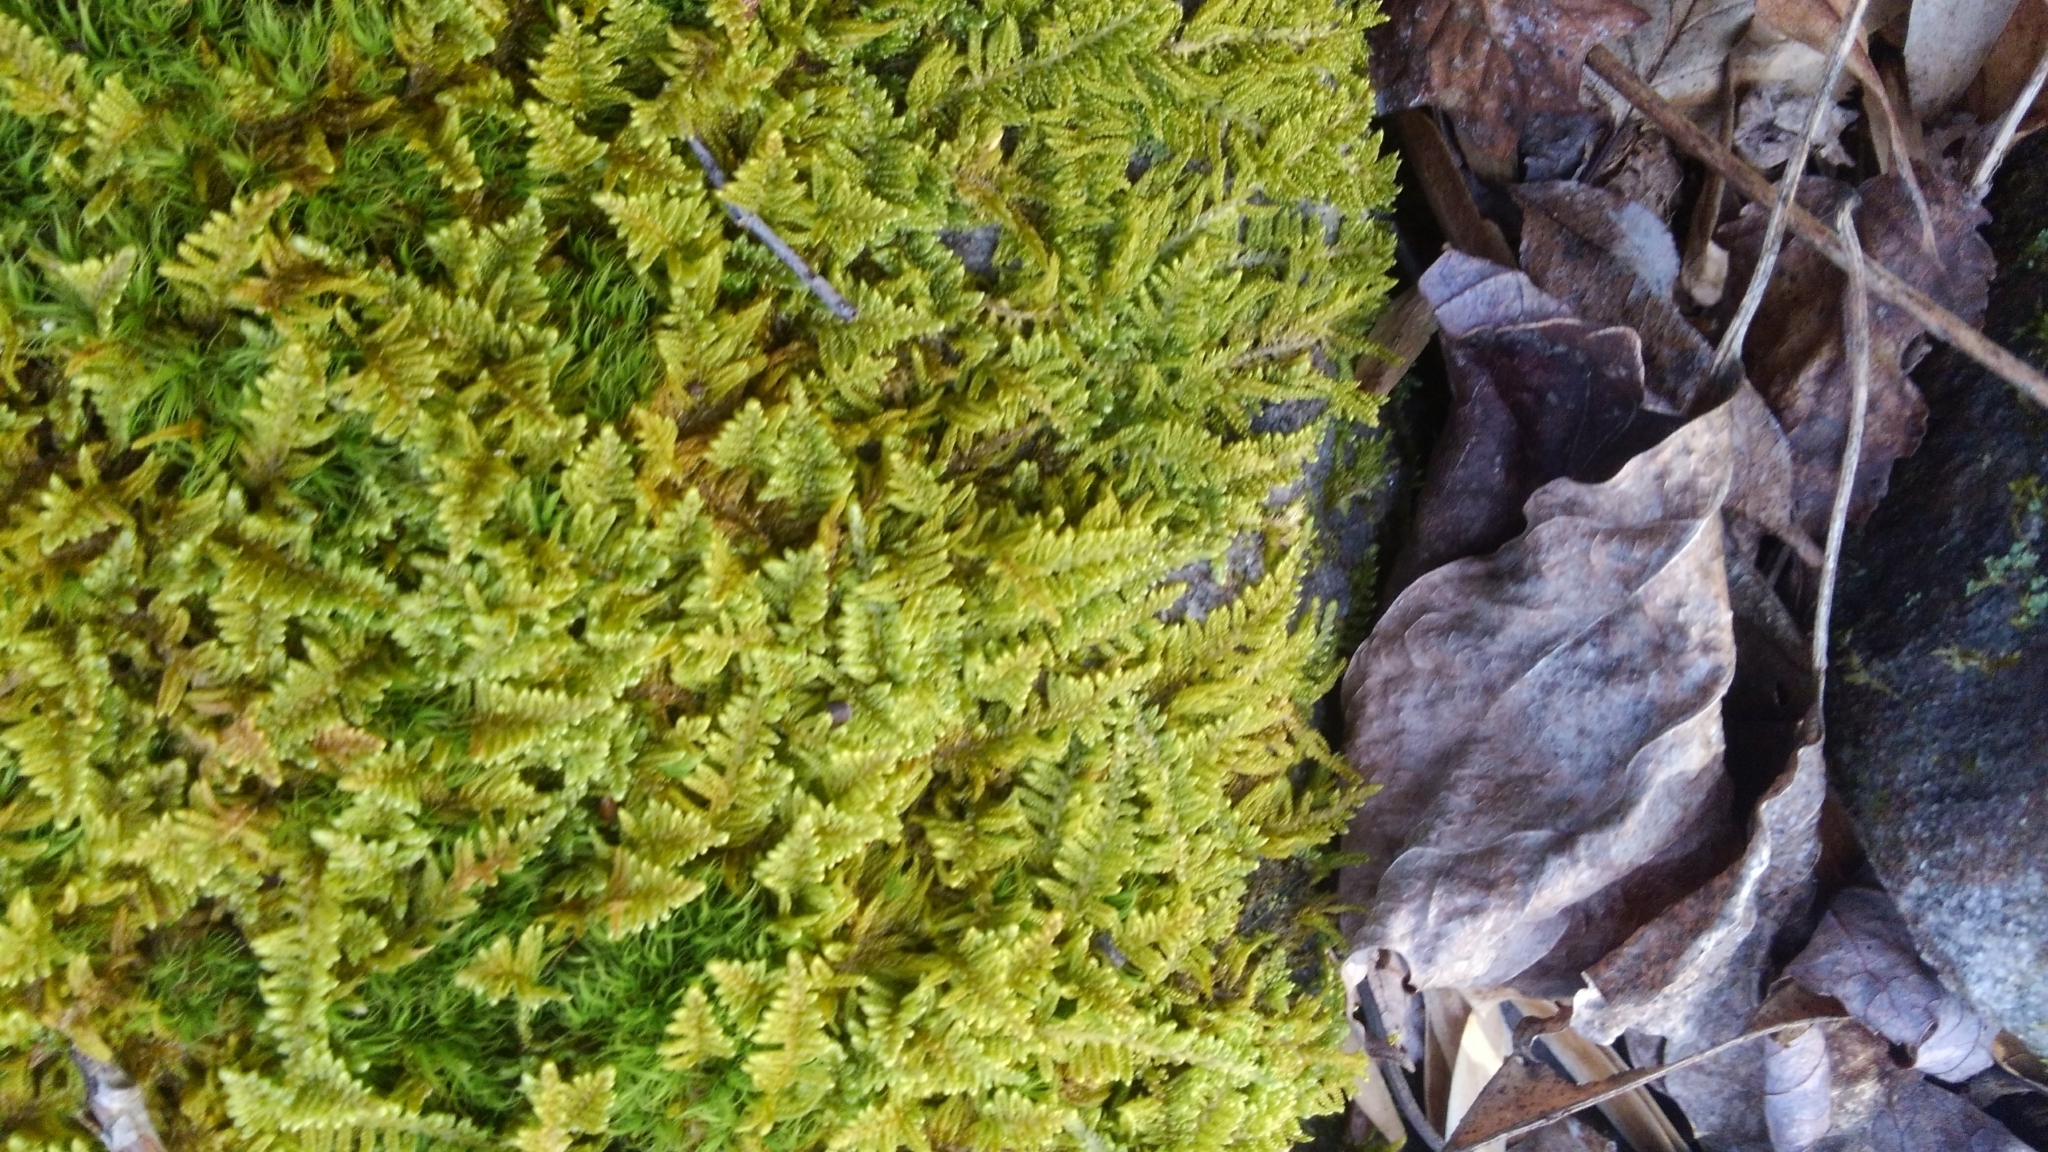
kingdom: Plantae
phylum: Bryophyta
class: Bryopsida
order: Hypnales
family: Callicladiaceae
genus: Callicladium
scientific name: Callicladium imponens
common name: Brocade moss
